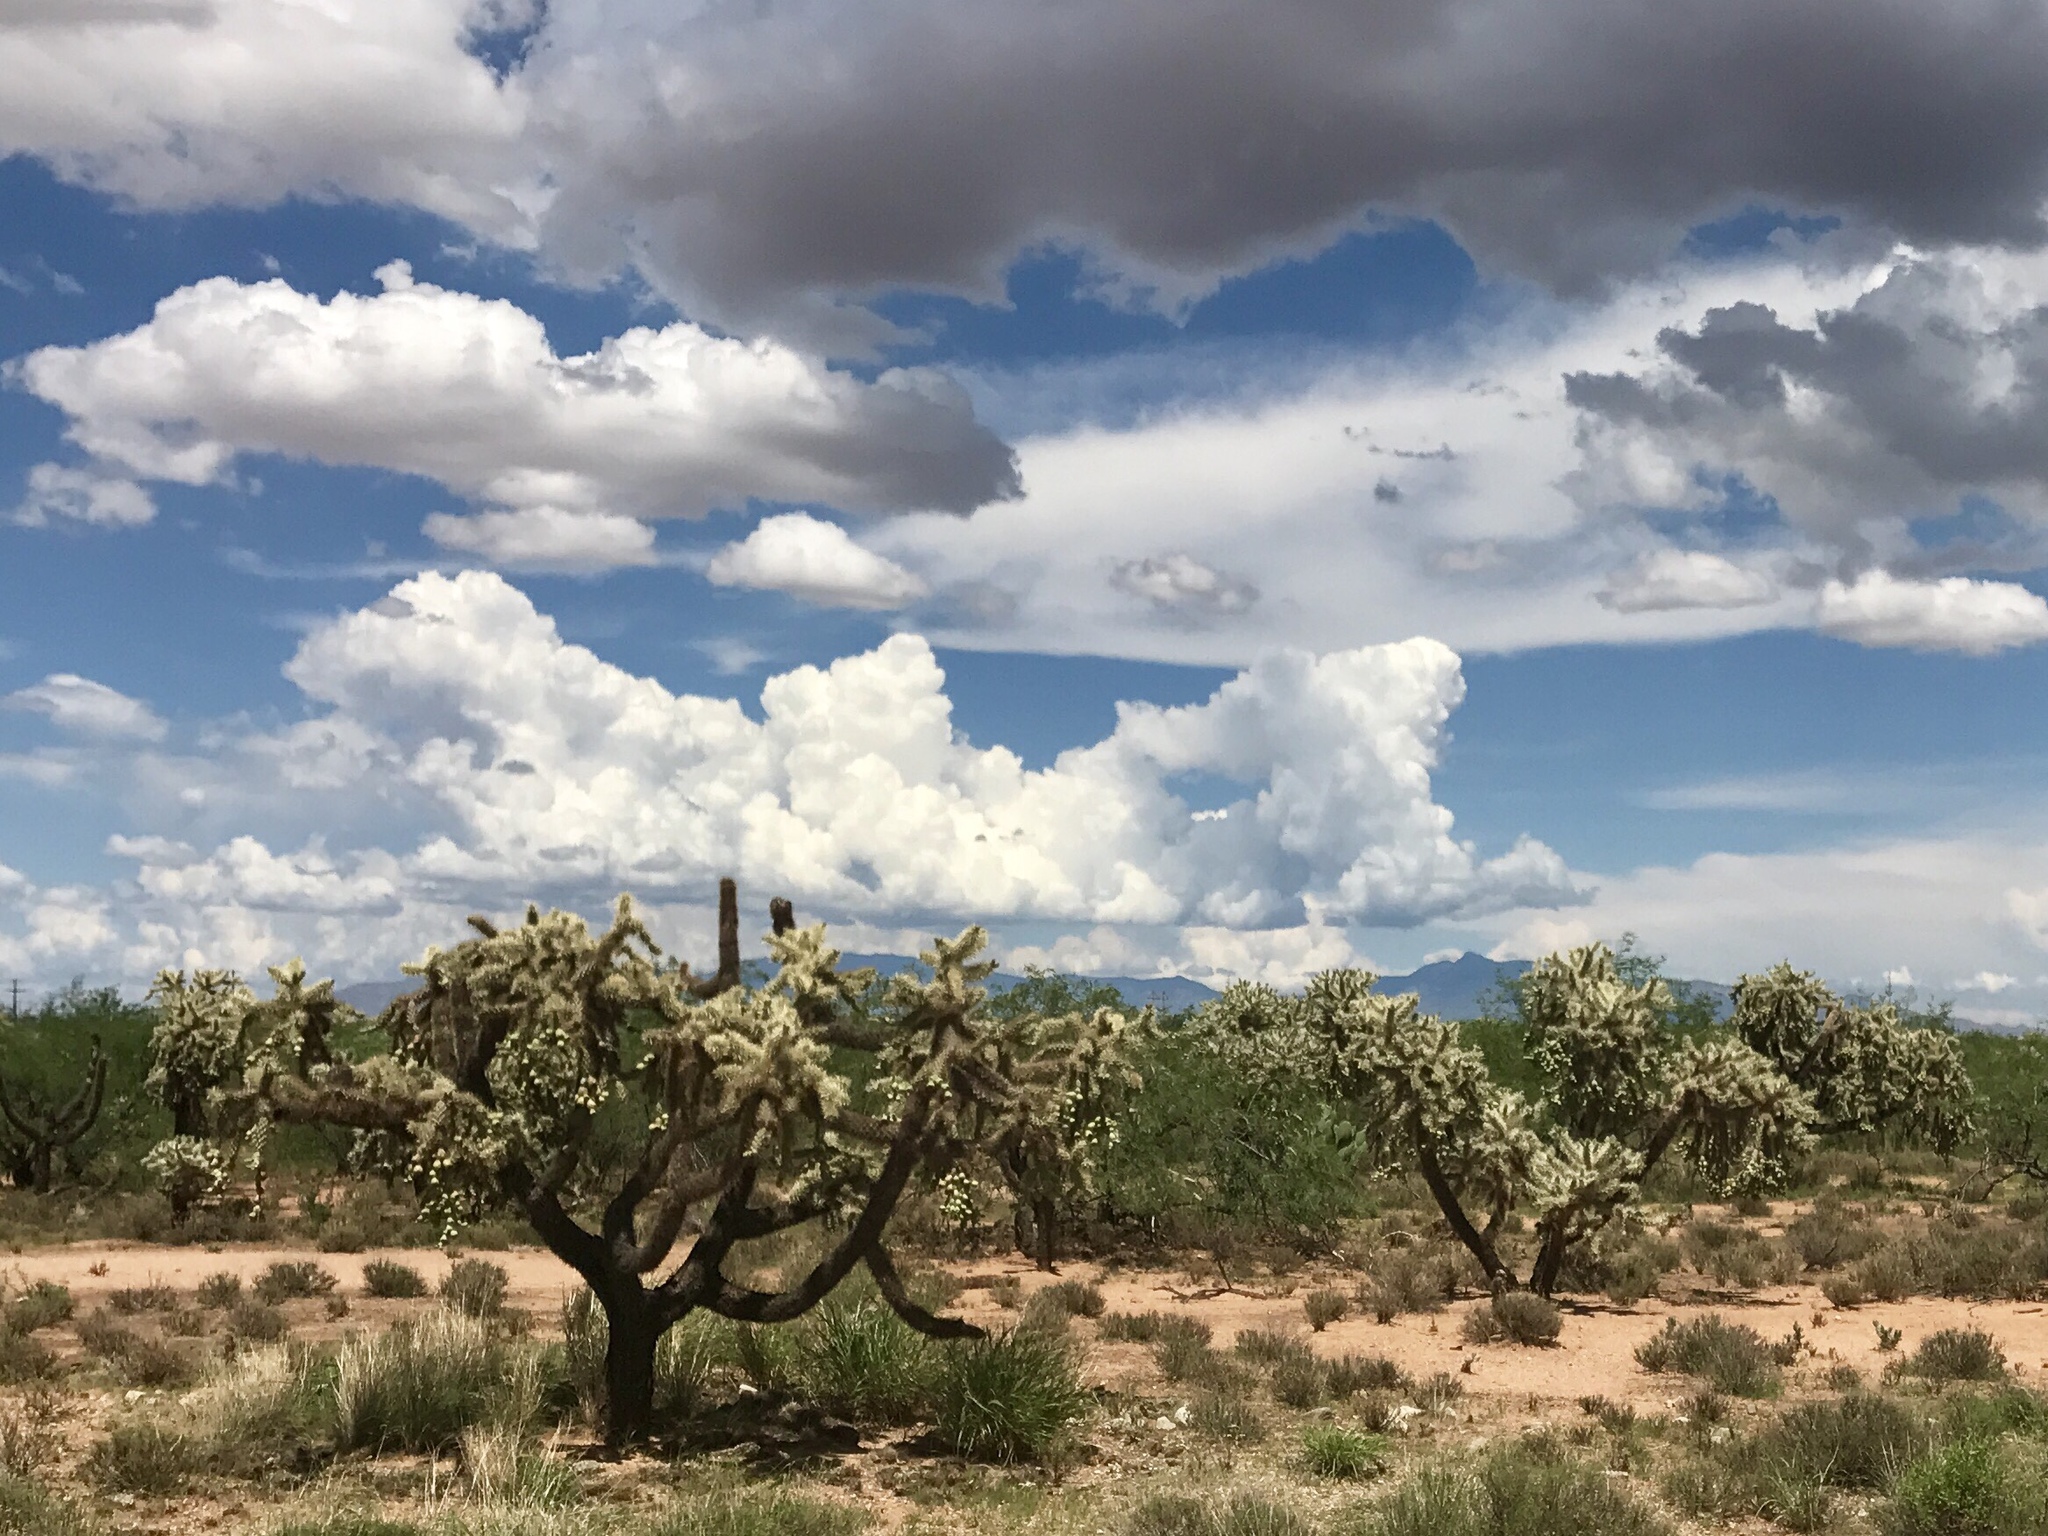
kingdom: Plantae
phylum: Tracheophyta
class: Magnoliopsida
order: Caryophyllales
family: Cactaceae
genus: Cylindropuntia
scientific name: Cylindropuntia fulgida
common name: Jumping cholla
